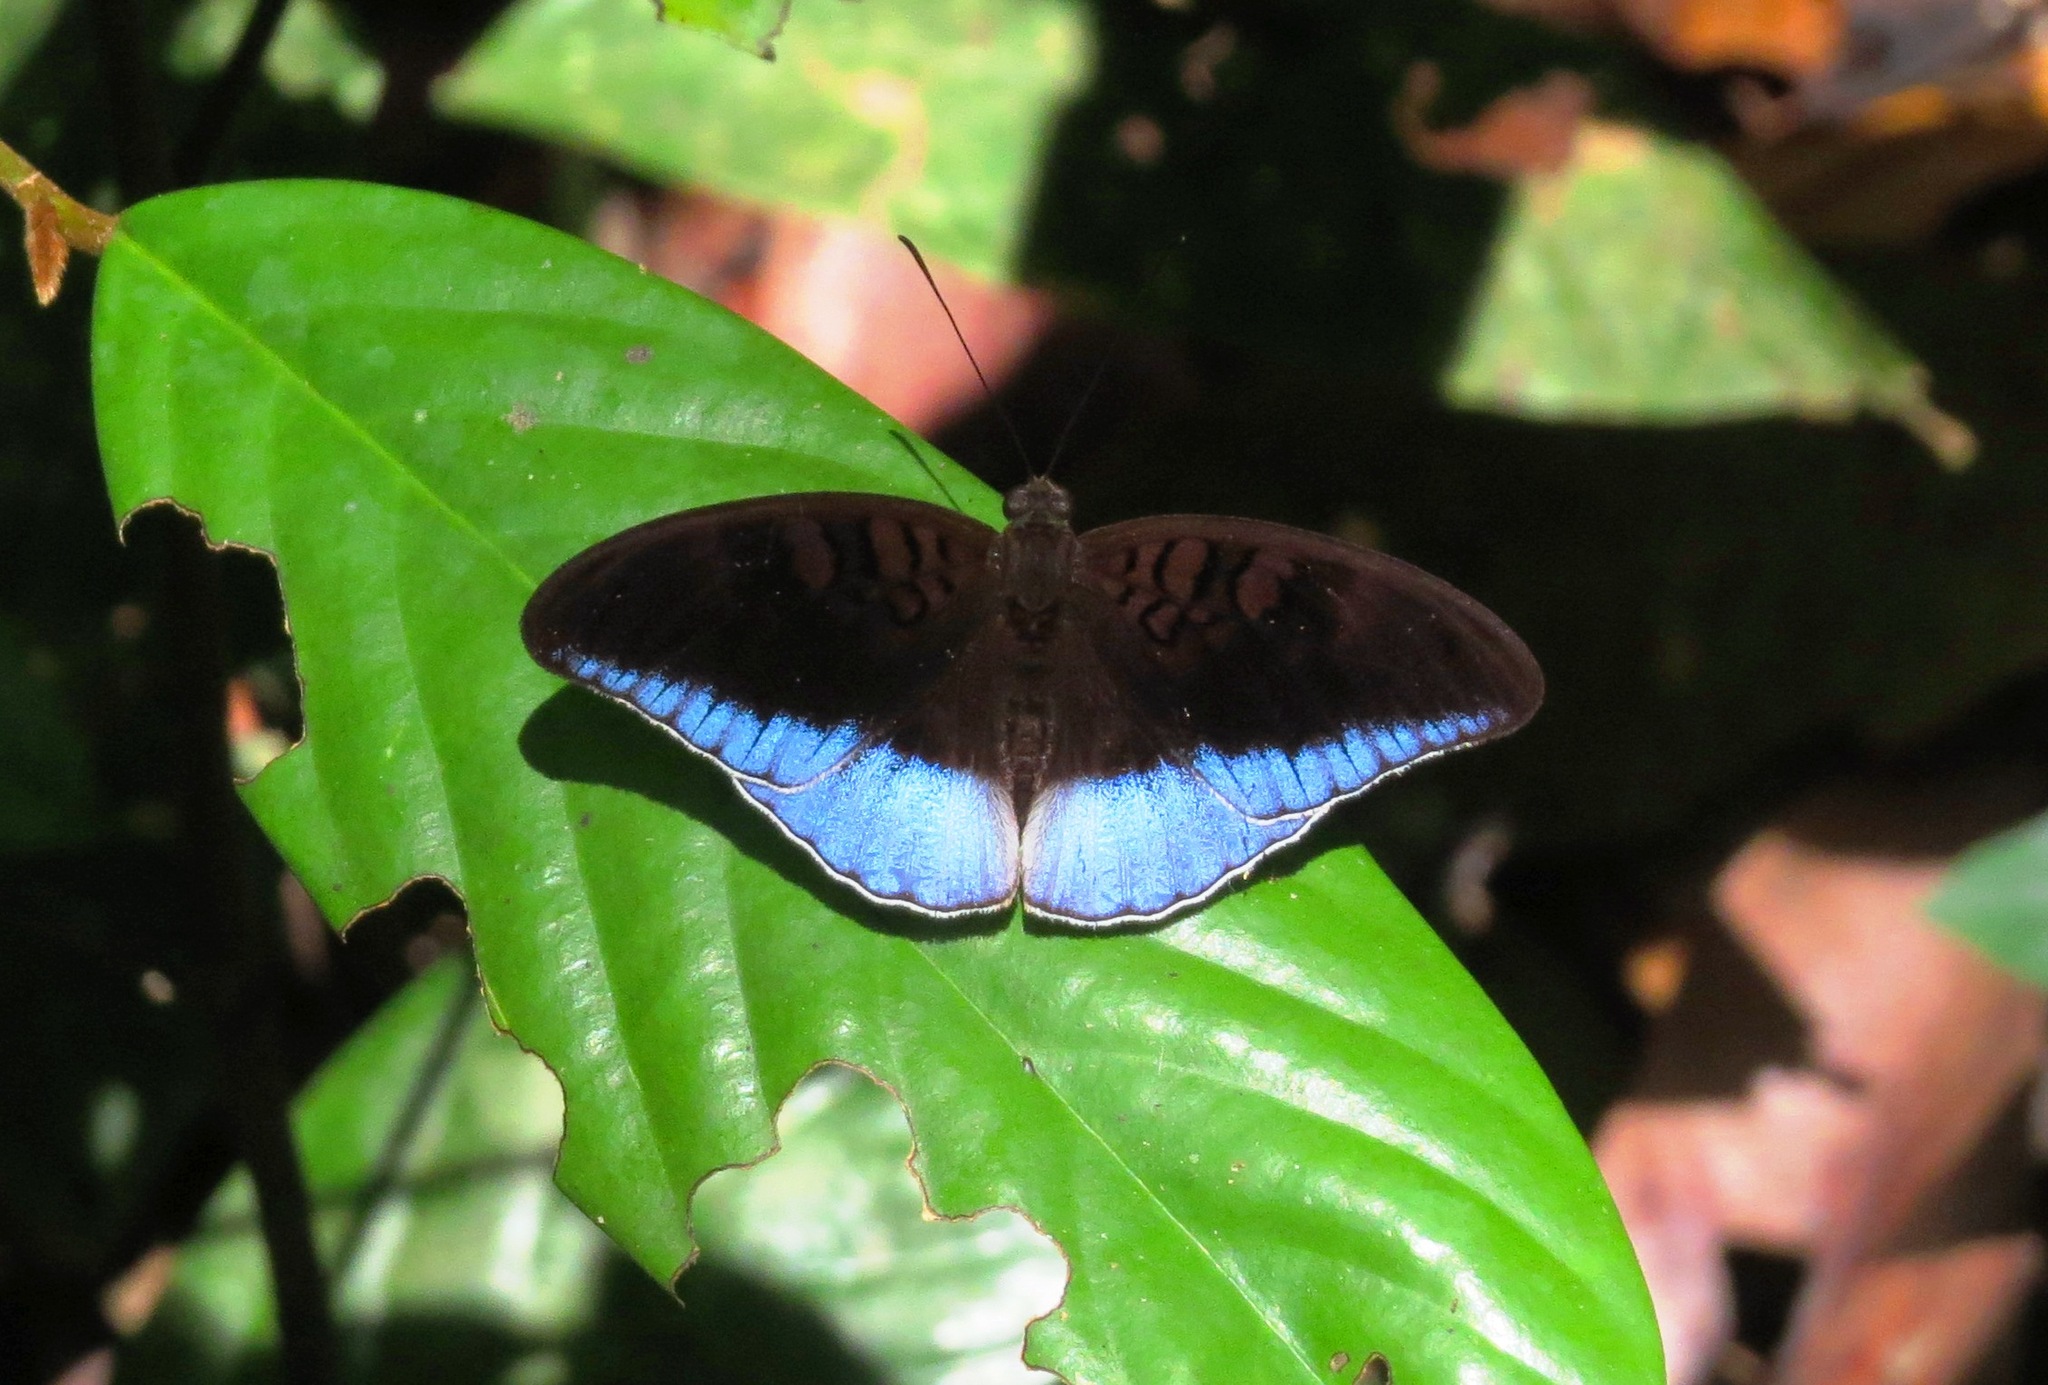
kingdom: Animalia
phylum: Arthropoda
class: Insecta
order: Lepidoptera
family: Nymphalidae
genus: Tanaecia
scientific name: Tanaecia iapis
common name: Horsfield's baron
